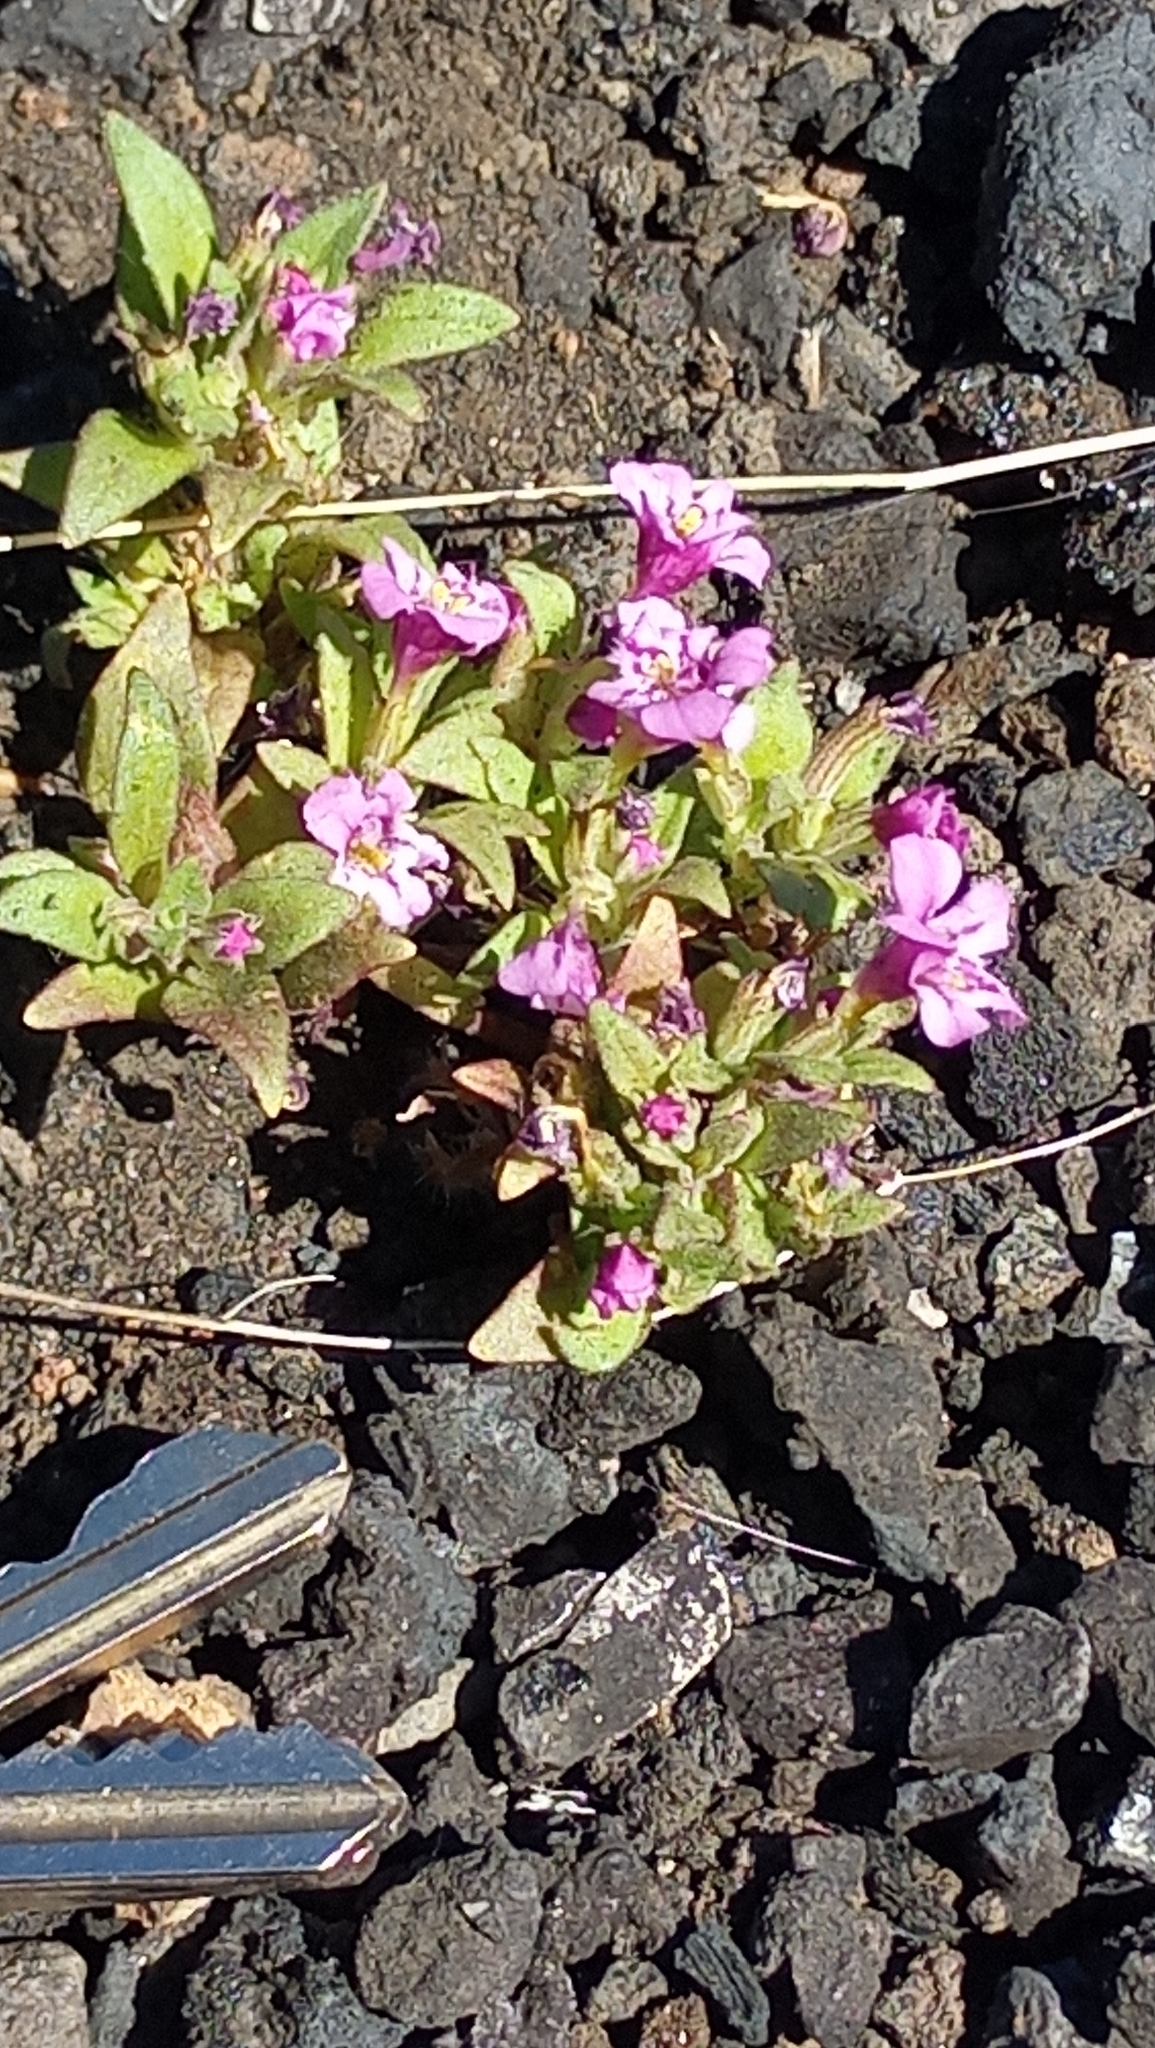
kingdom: Plantae
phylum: Tracheophyta
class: Magnoliopsida
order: Lamiales
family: Phrymaceae
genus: Diplacus
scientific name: Diplacus nanus
